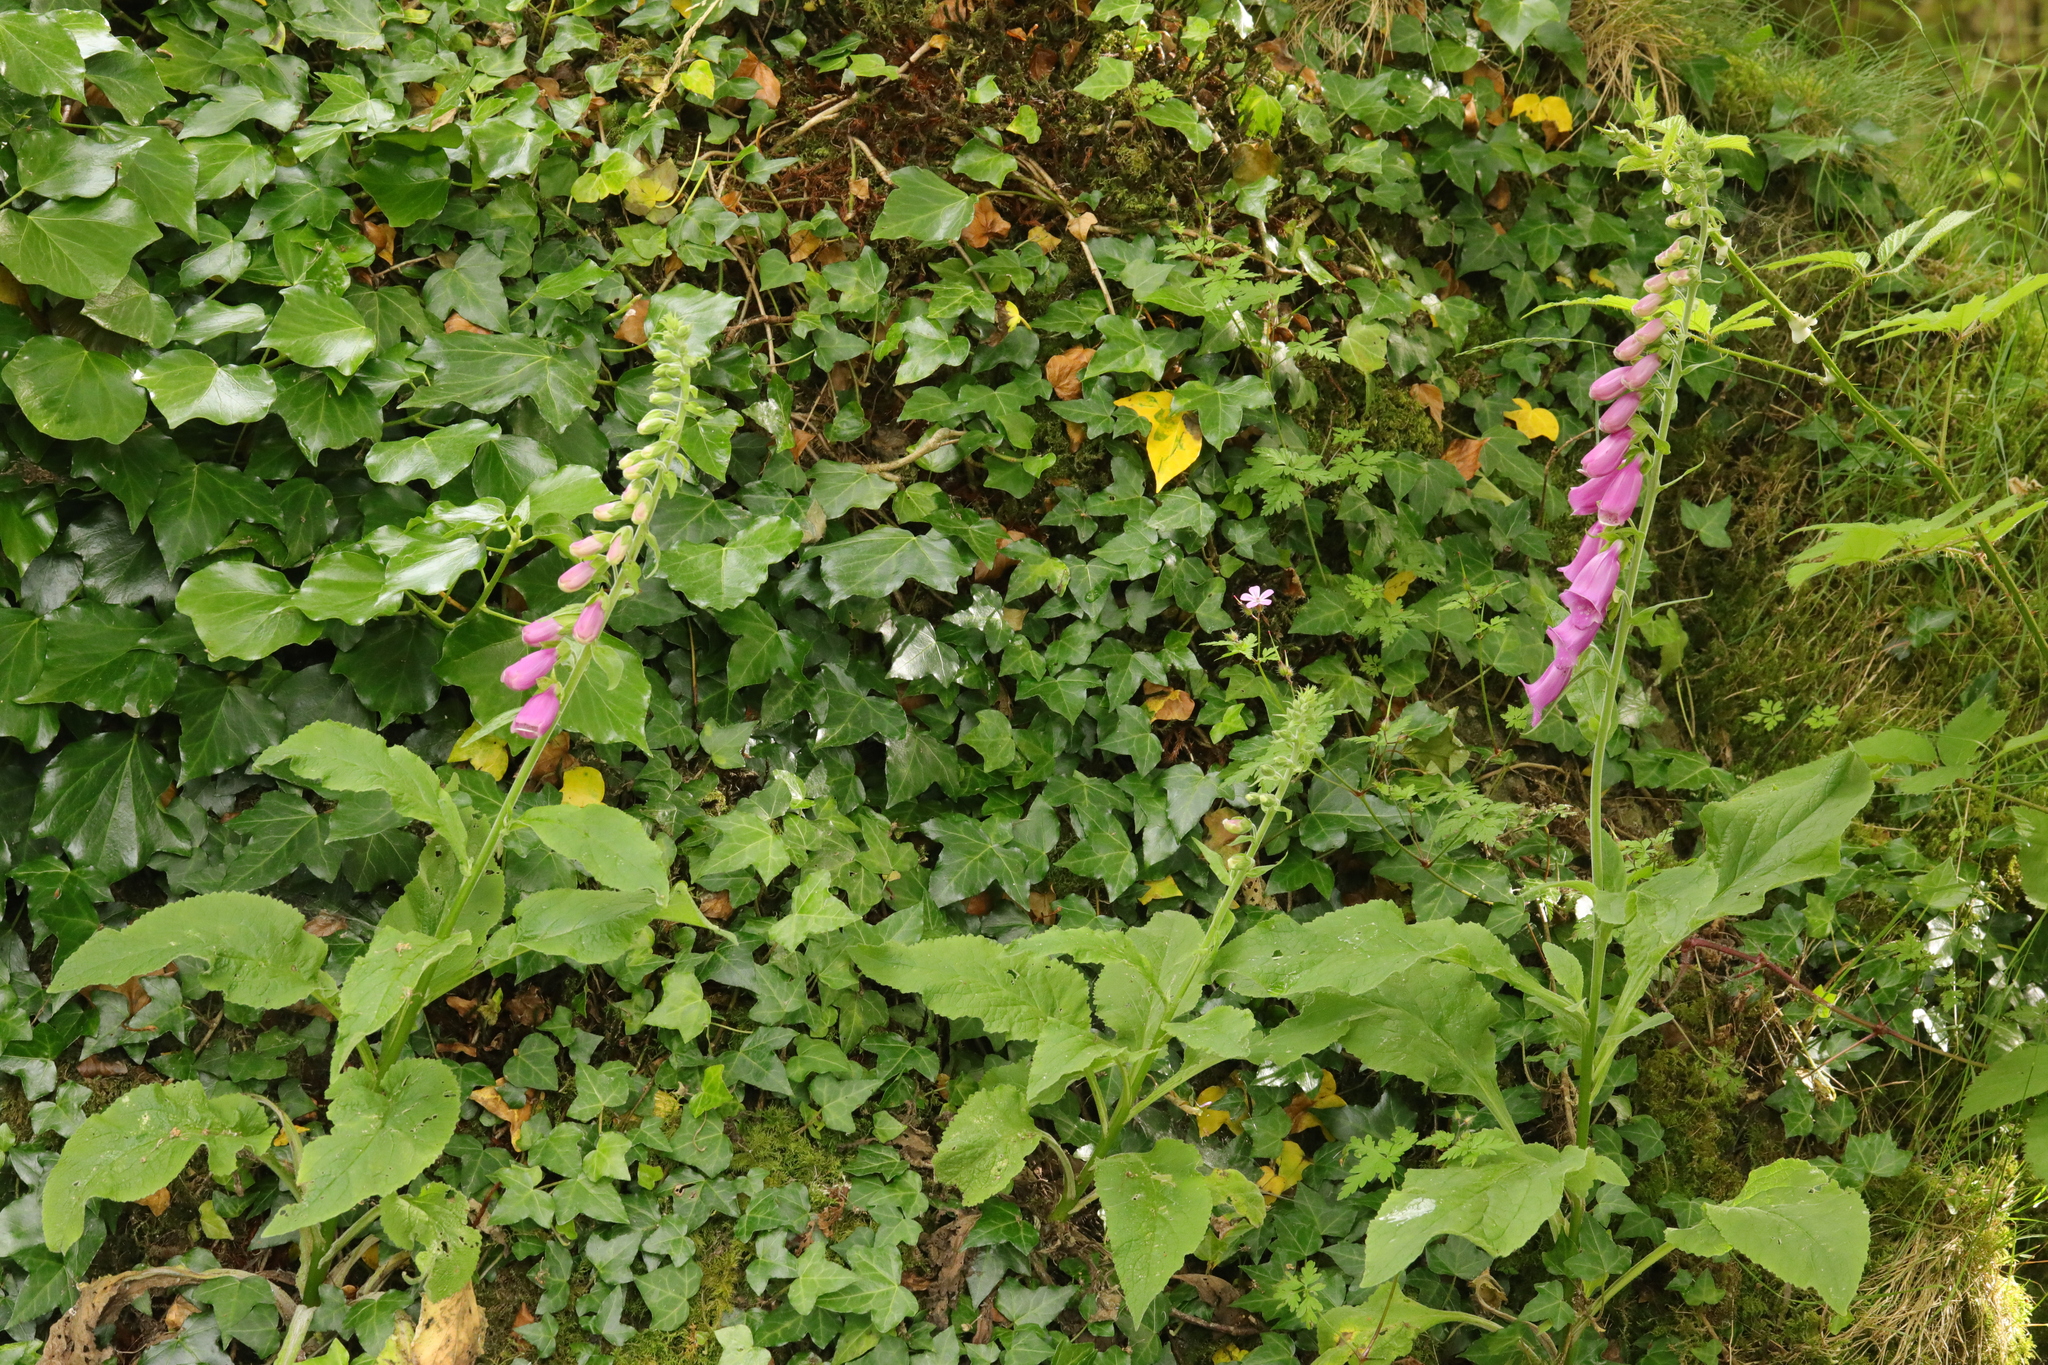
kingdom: Plantae
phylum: Tracheophyta
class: Magnoliopsida
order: Lamiales
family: Plantaginaceae
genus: Digitalis
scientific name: Digitalis purpurea
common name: Foxglove
